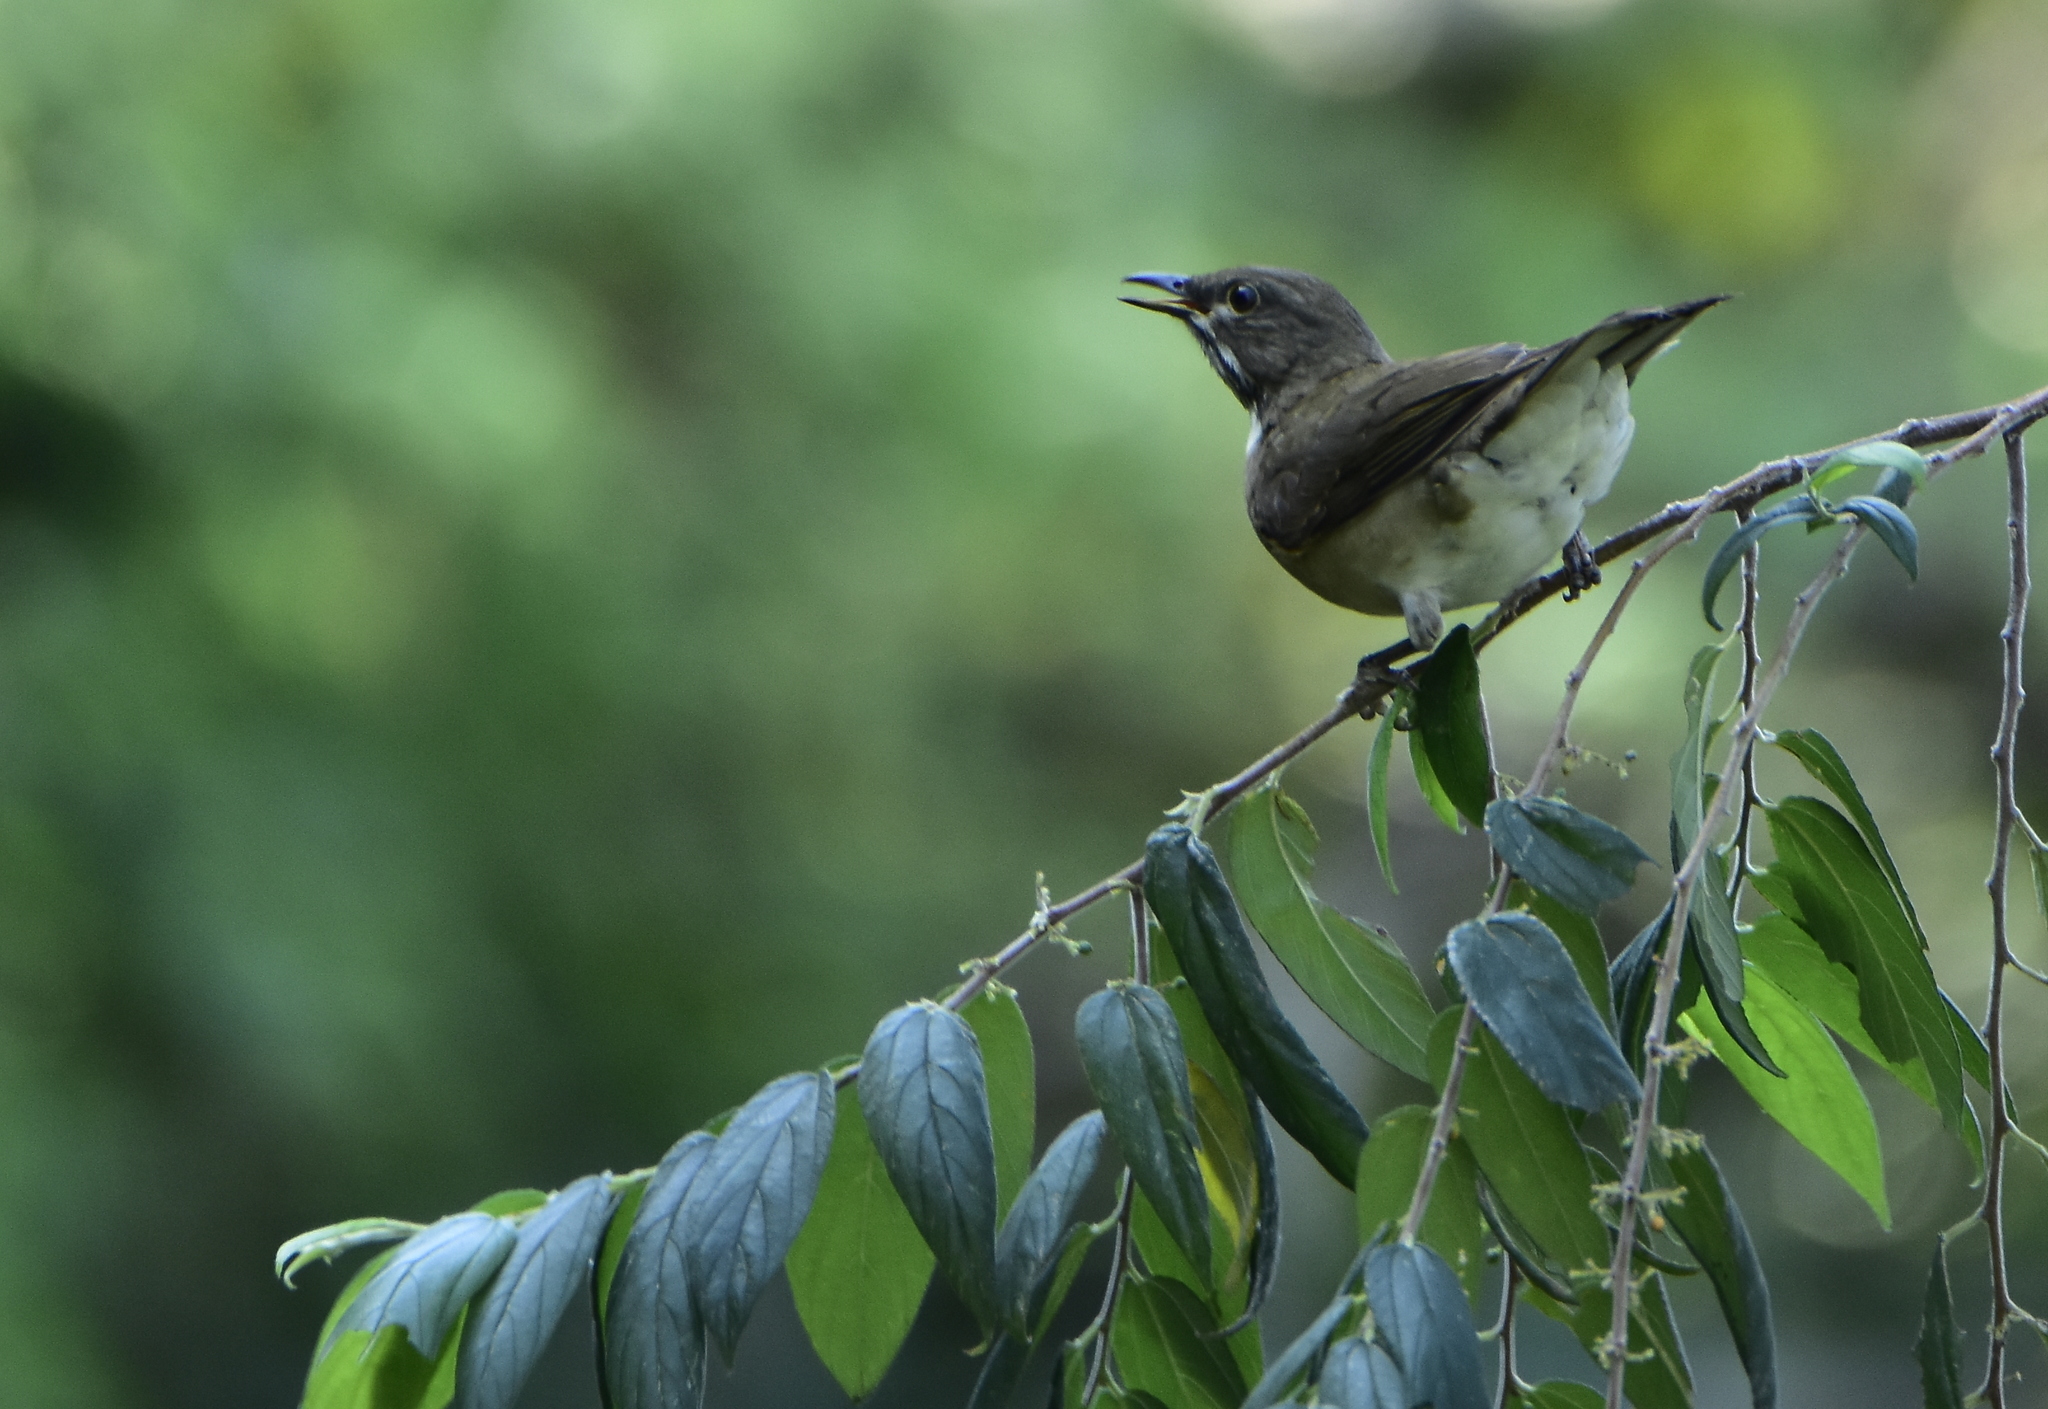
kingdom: Animalia
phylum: Chordata
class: Aves
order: Passeriformes
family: Turdidae
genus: Turdus
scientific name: Turdus assimilis
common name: White-throated thrush
